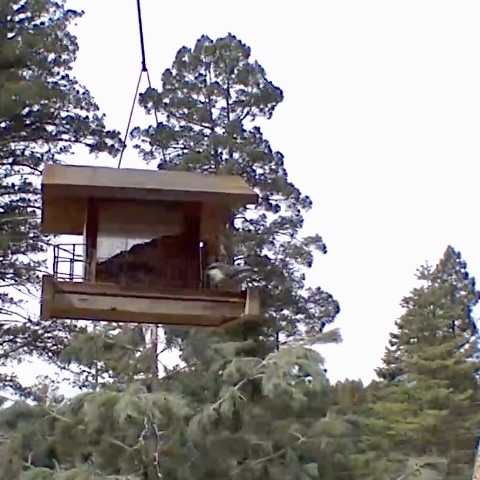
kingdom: Animalia
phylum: Chordata
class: Aves
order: Passeriformes
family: Sittidae
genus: Sitta
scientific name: Sitta pygmaea
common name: Pygmy nuthatch
